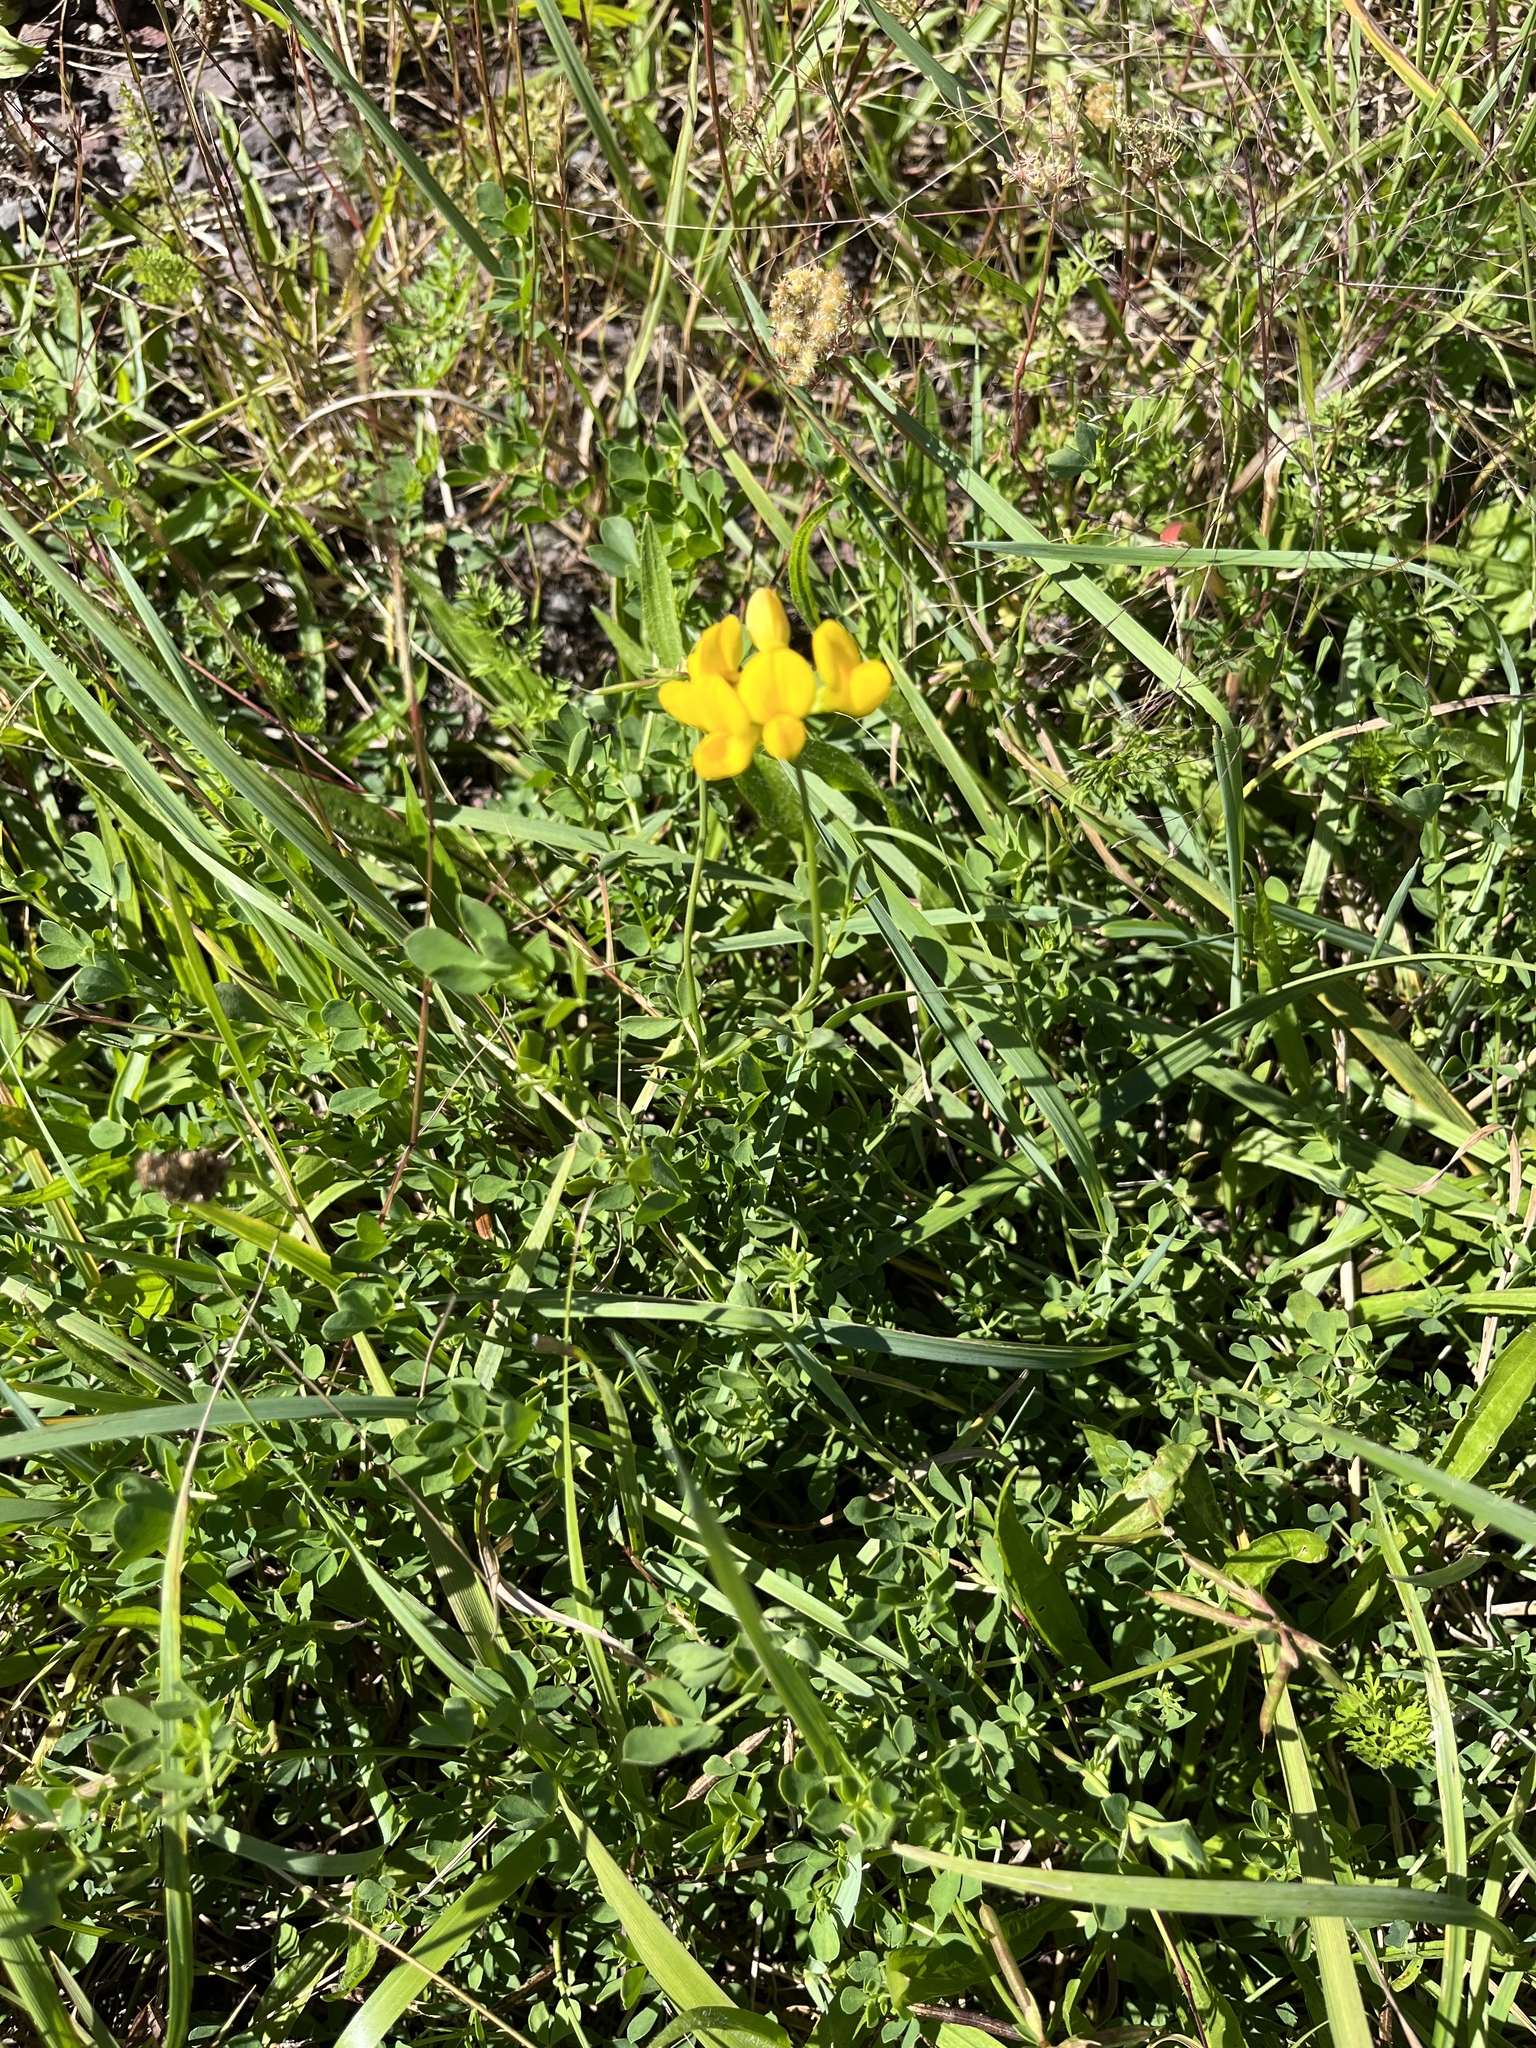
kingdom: Plantae
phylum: Tracheophyta
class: Magnoliopsida
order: Fabales
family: Fabaceae
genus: Lotus
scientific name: Lotus corniculatus
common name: Common bird's-foot-trefoil
